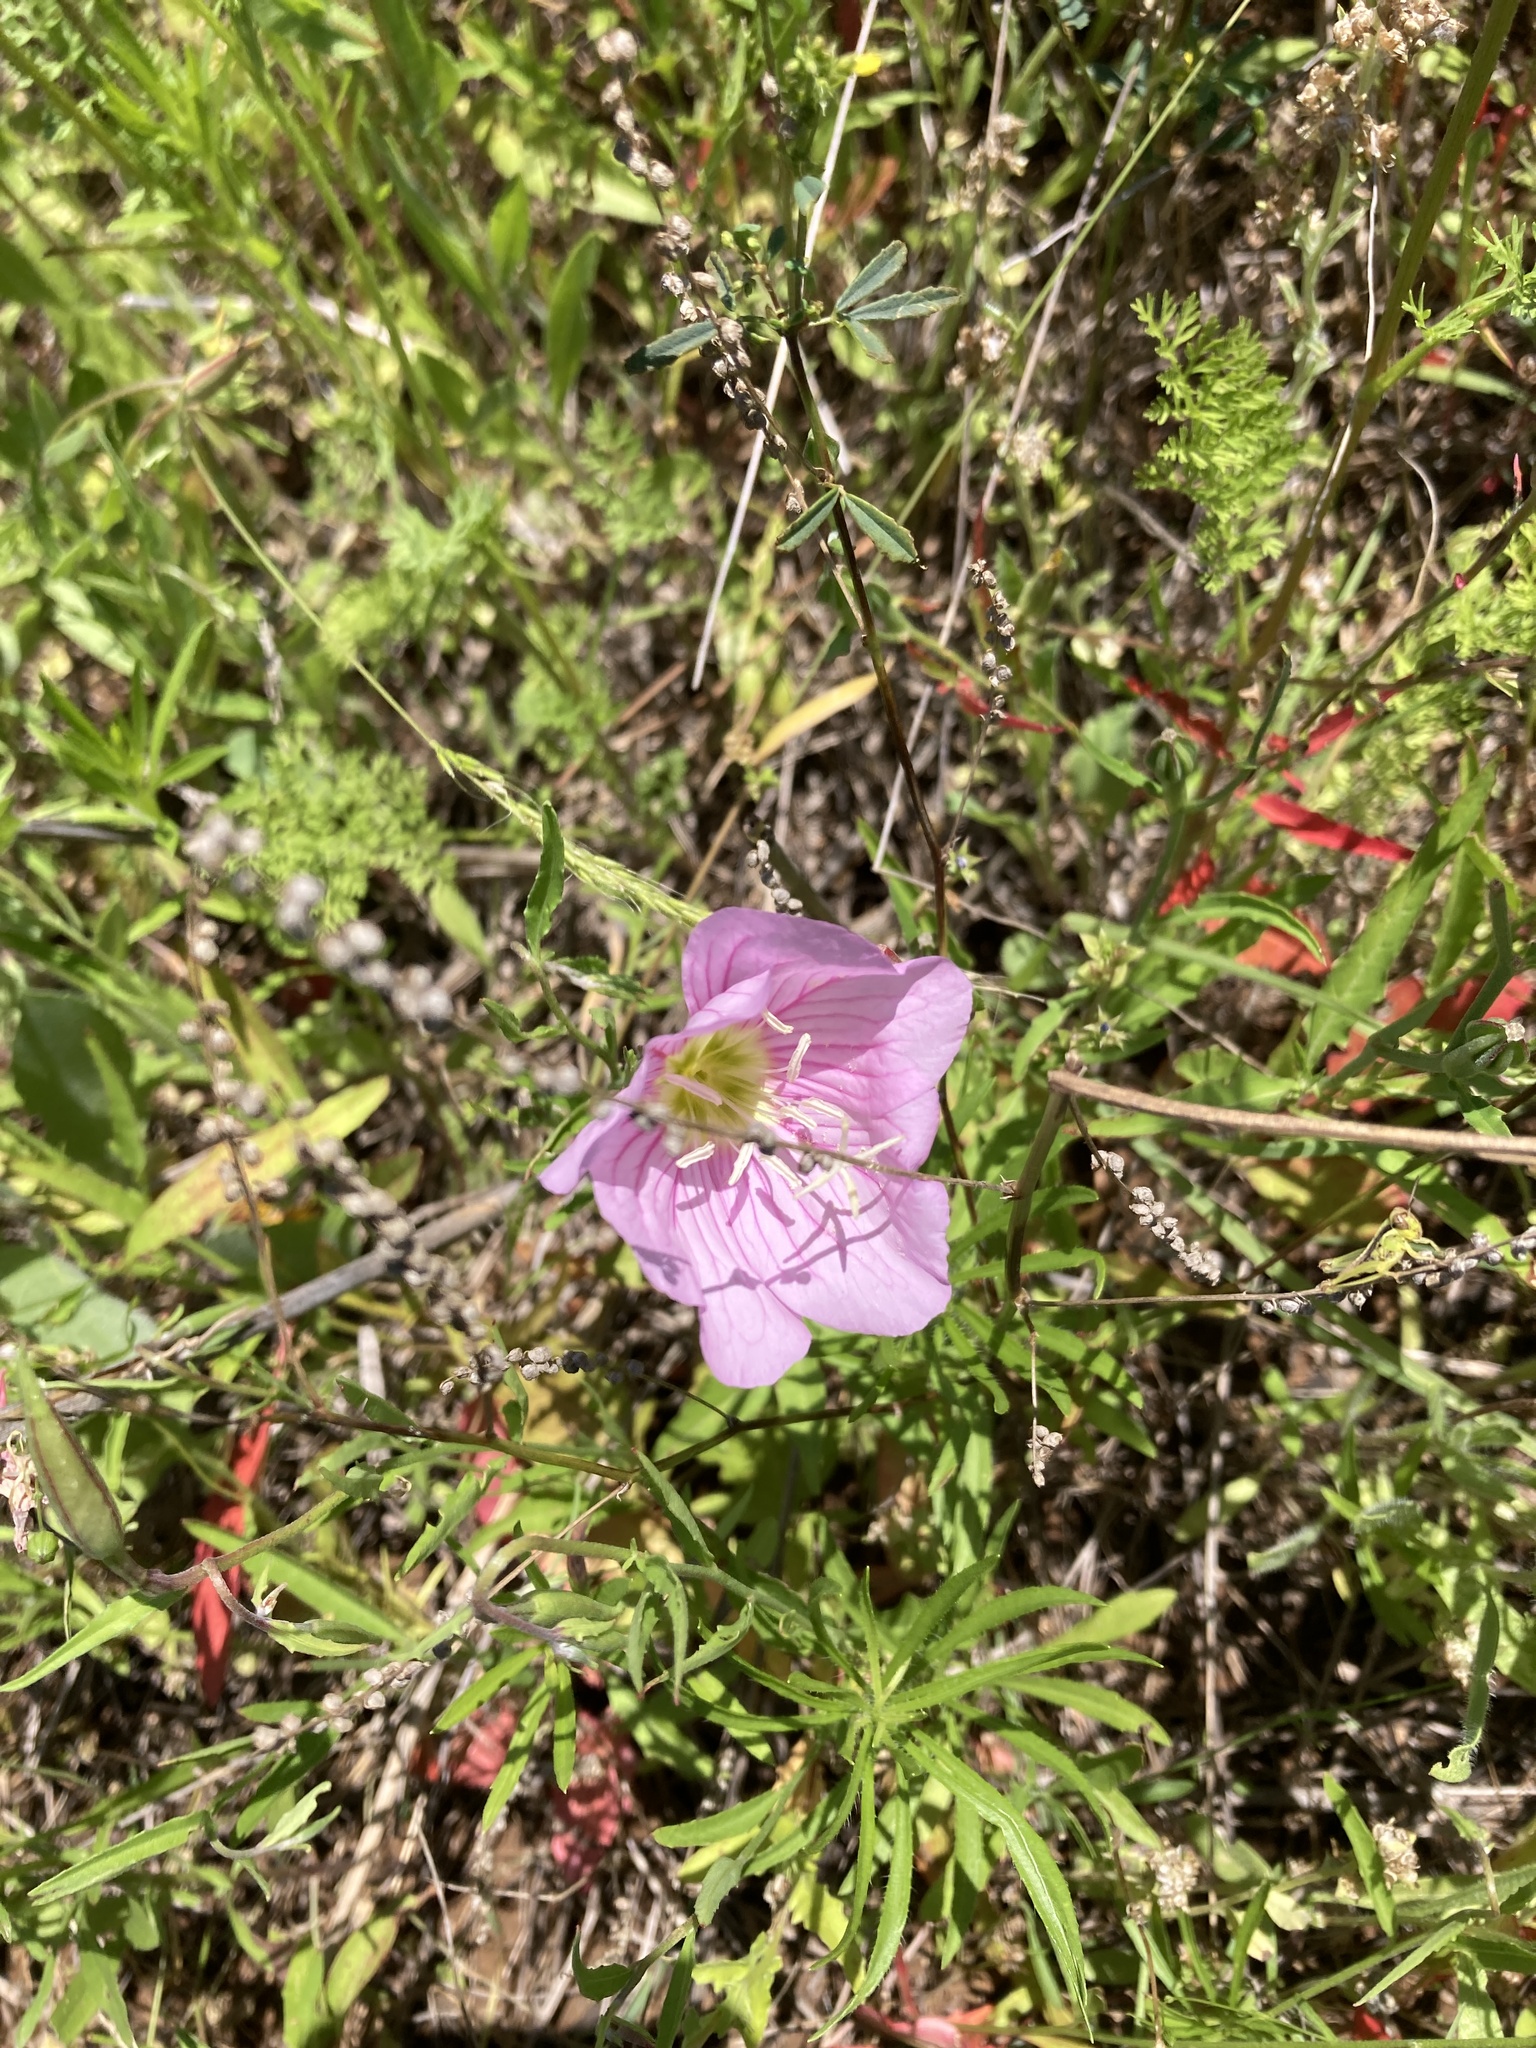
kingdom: Plantae
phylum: Tracheophyta
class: Magnoliopsida
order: Myrtales
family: Onagraceae
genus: Oenothera
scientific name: Oenothera speciosa
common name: White evening-primrose
